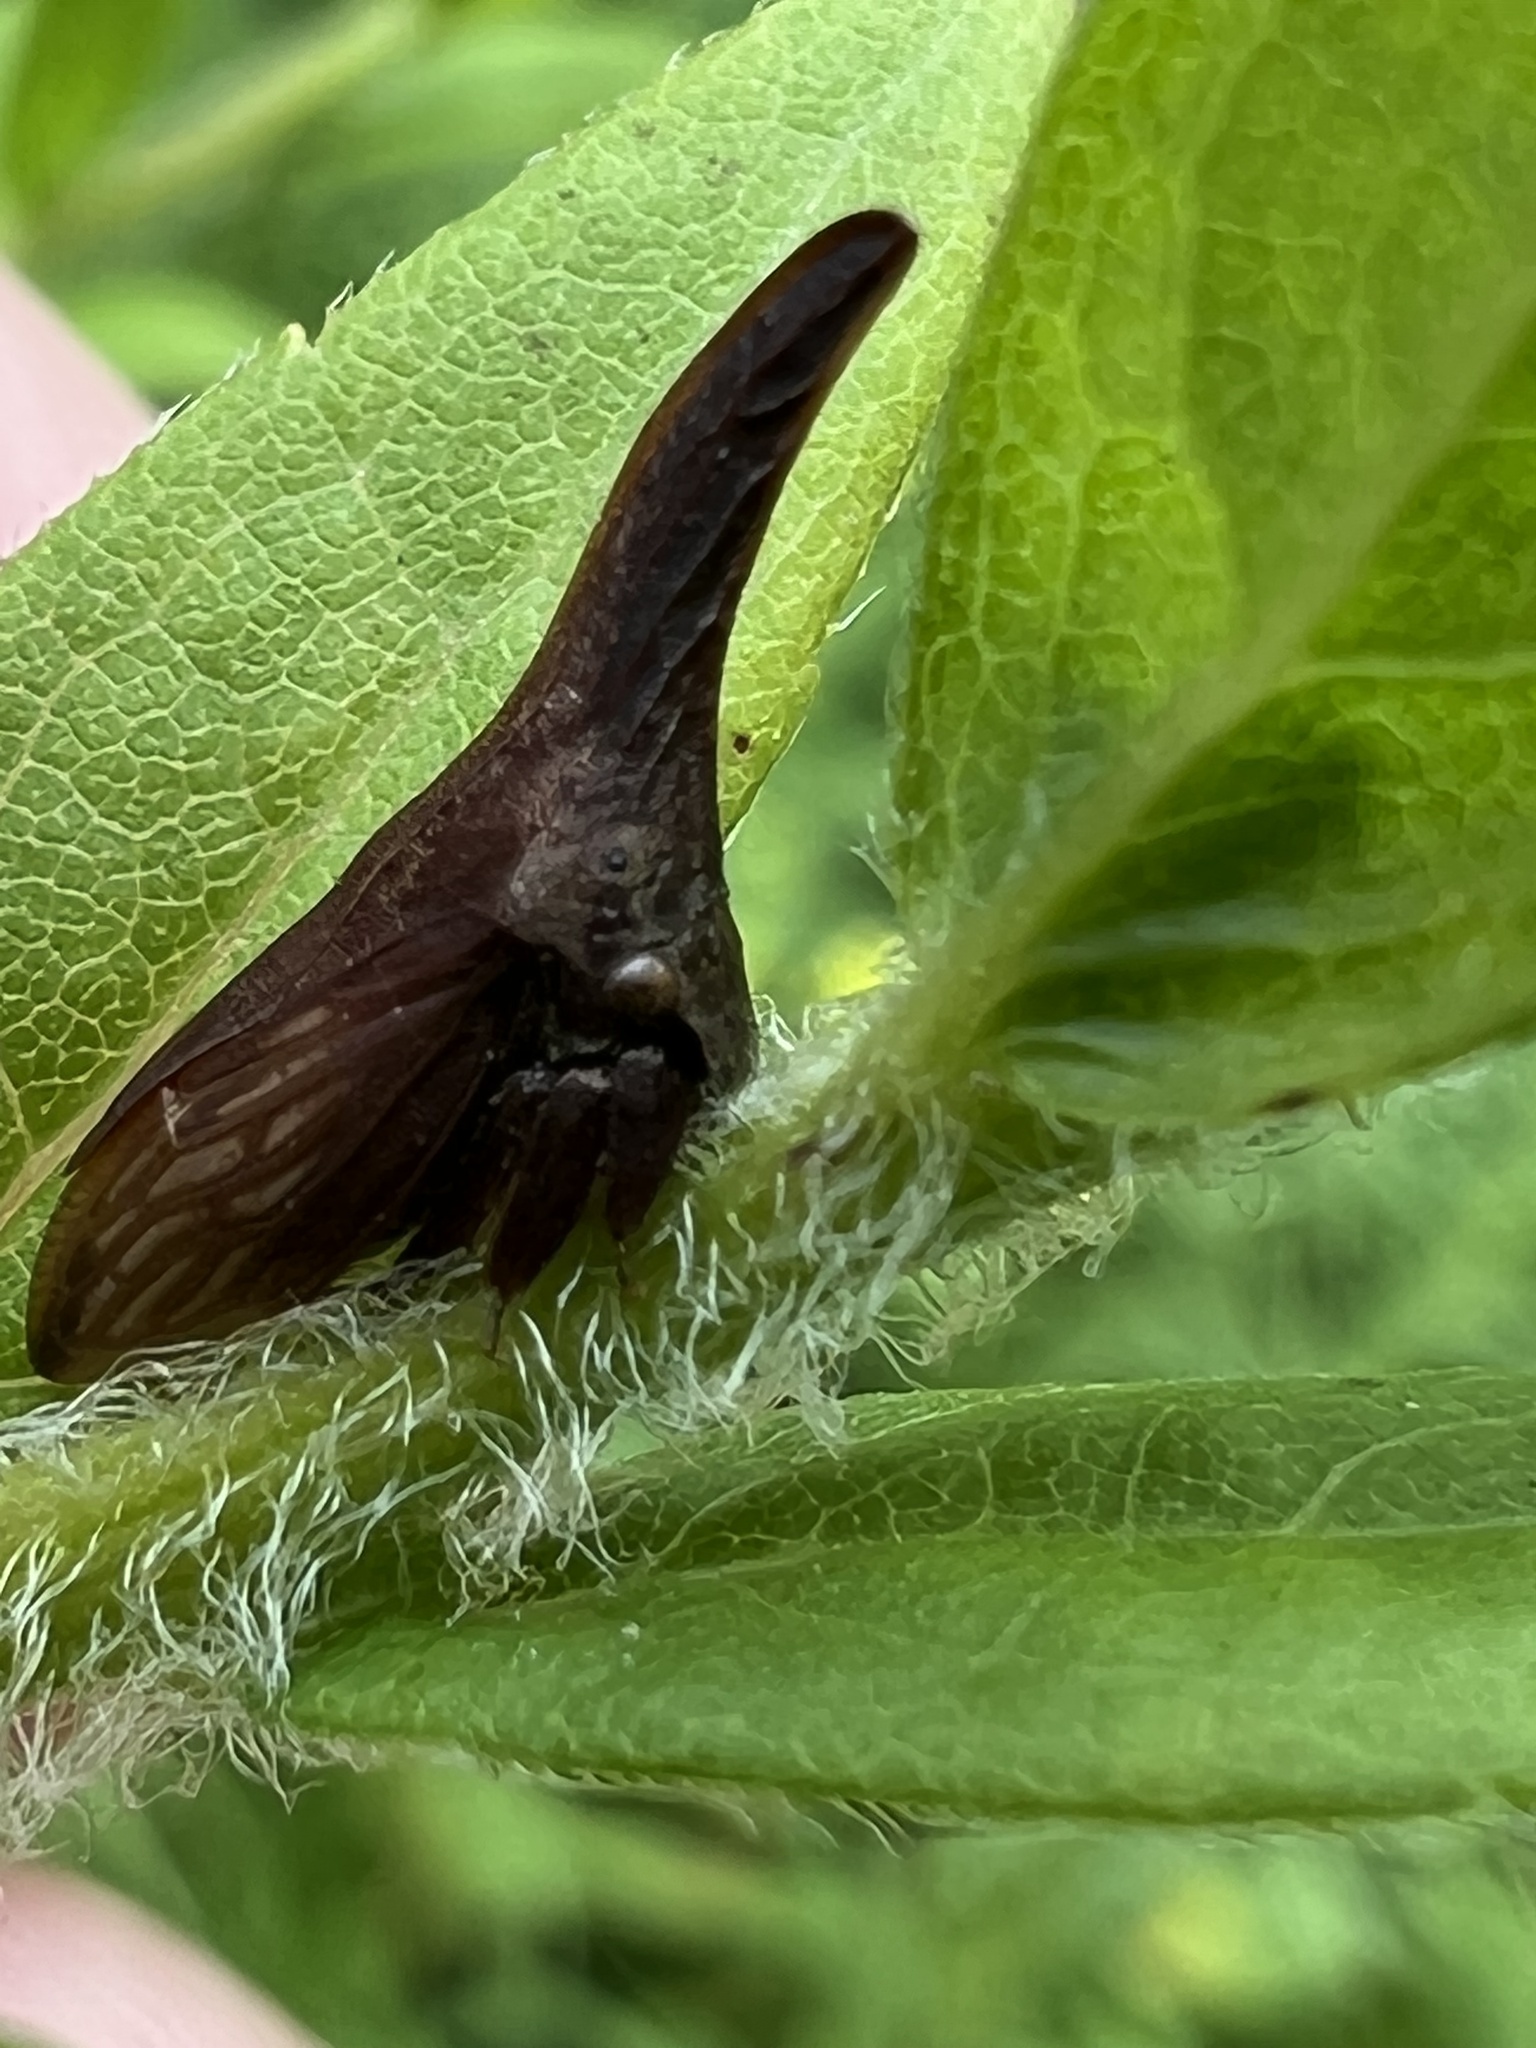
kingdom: Animalia
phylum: Arthropoda
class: Insecta
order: Hemiptera
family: Membracidae
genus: Enchenopa
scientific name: Enchenopa latipes
